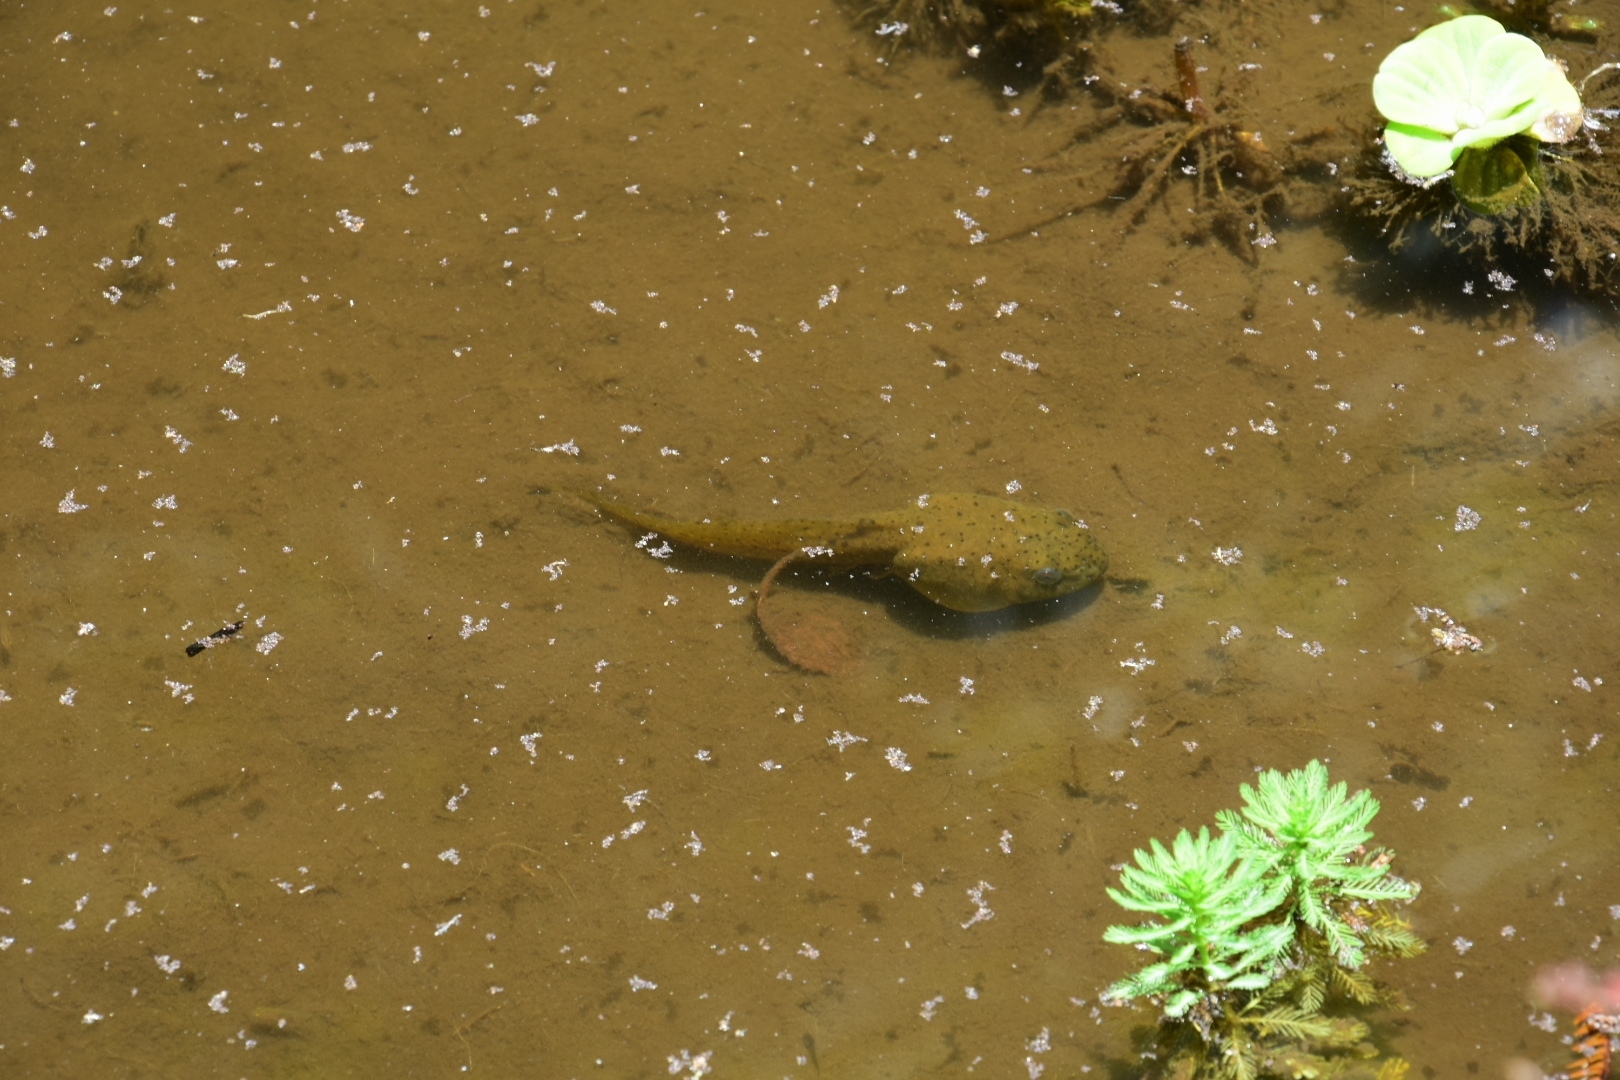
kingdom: Animalia
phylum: Chordata
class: Amphibia
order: Anura
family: Ranidae
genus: Lithobates
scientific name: Lithobates catesbeianus
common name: American bullfrog
